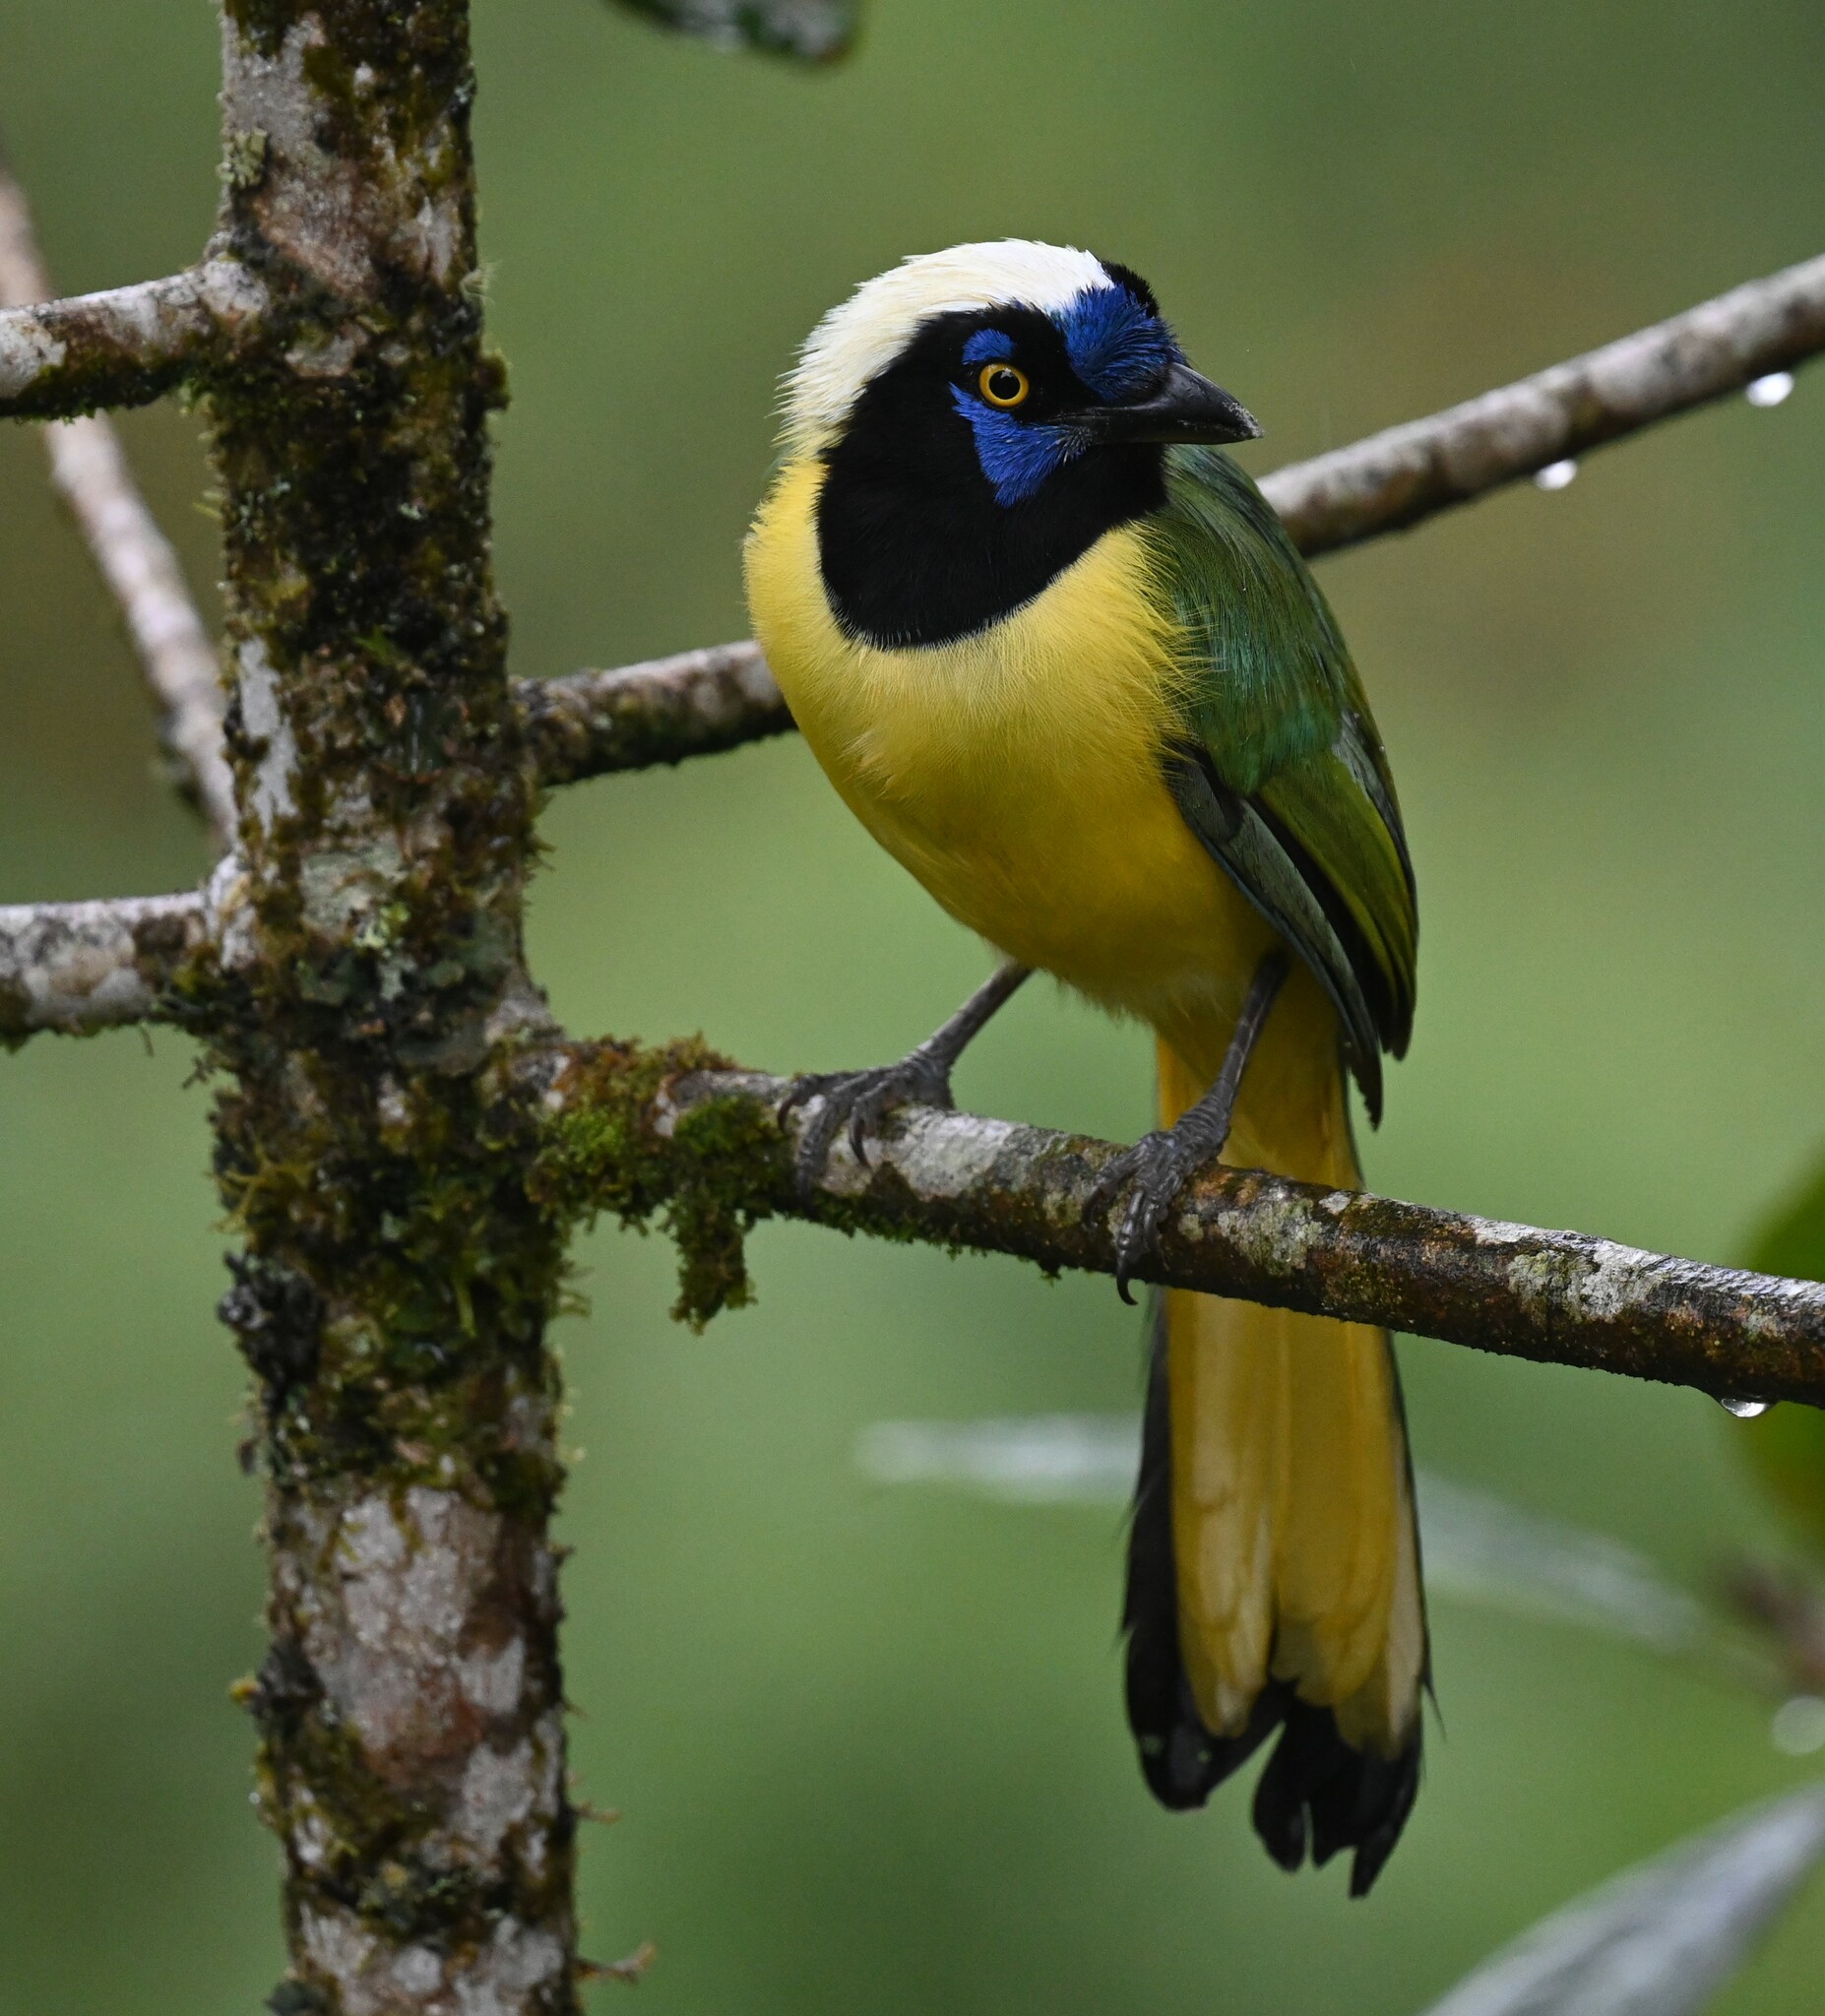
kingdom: Animalia
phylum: Chordata
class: Aves
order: Passeriformes
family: Corvidae
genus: Cyanocorax
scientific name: Cyanocorax yncas
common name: Green jay
